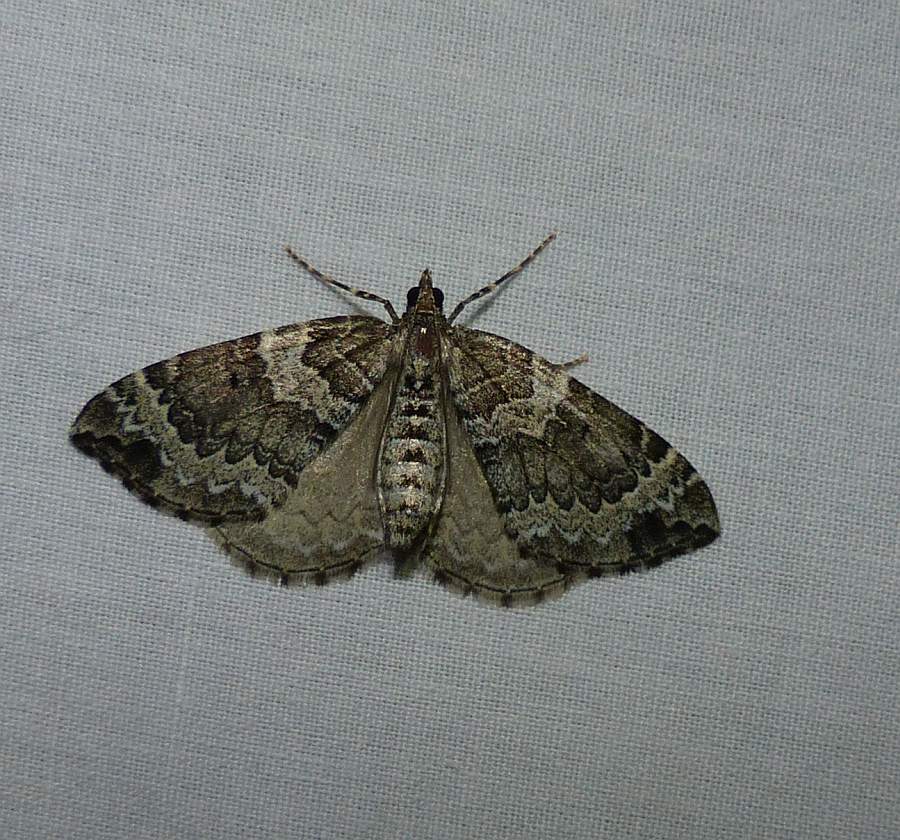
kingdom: Animalia
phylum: Arthropoda
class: Insecta
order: Lepidoptera
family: Geometridae
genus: Eulithis
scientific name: Eulithis explanata
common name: White eulithis
